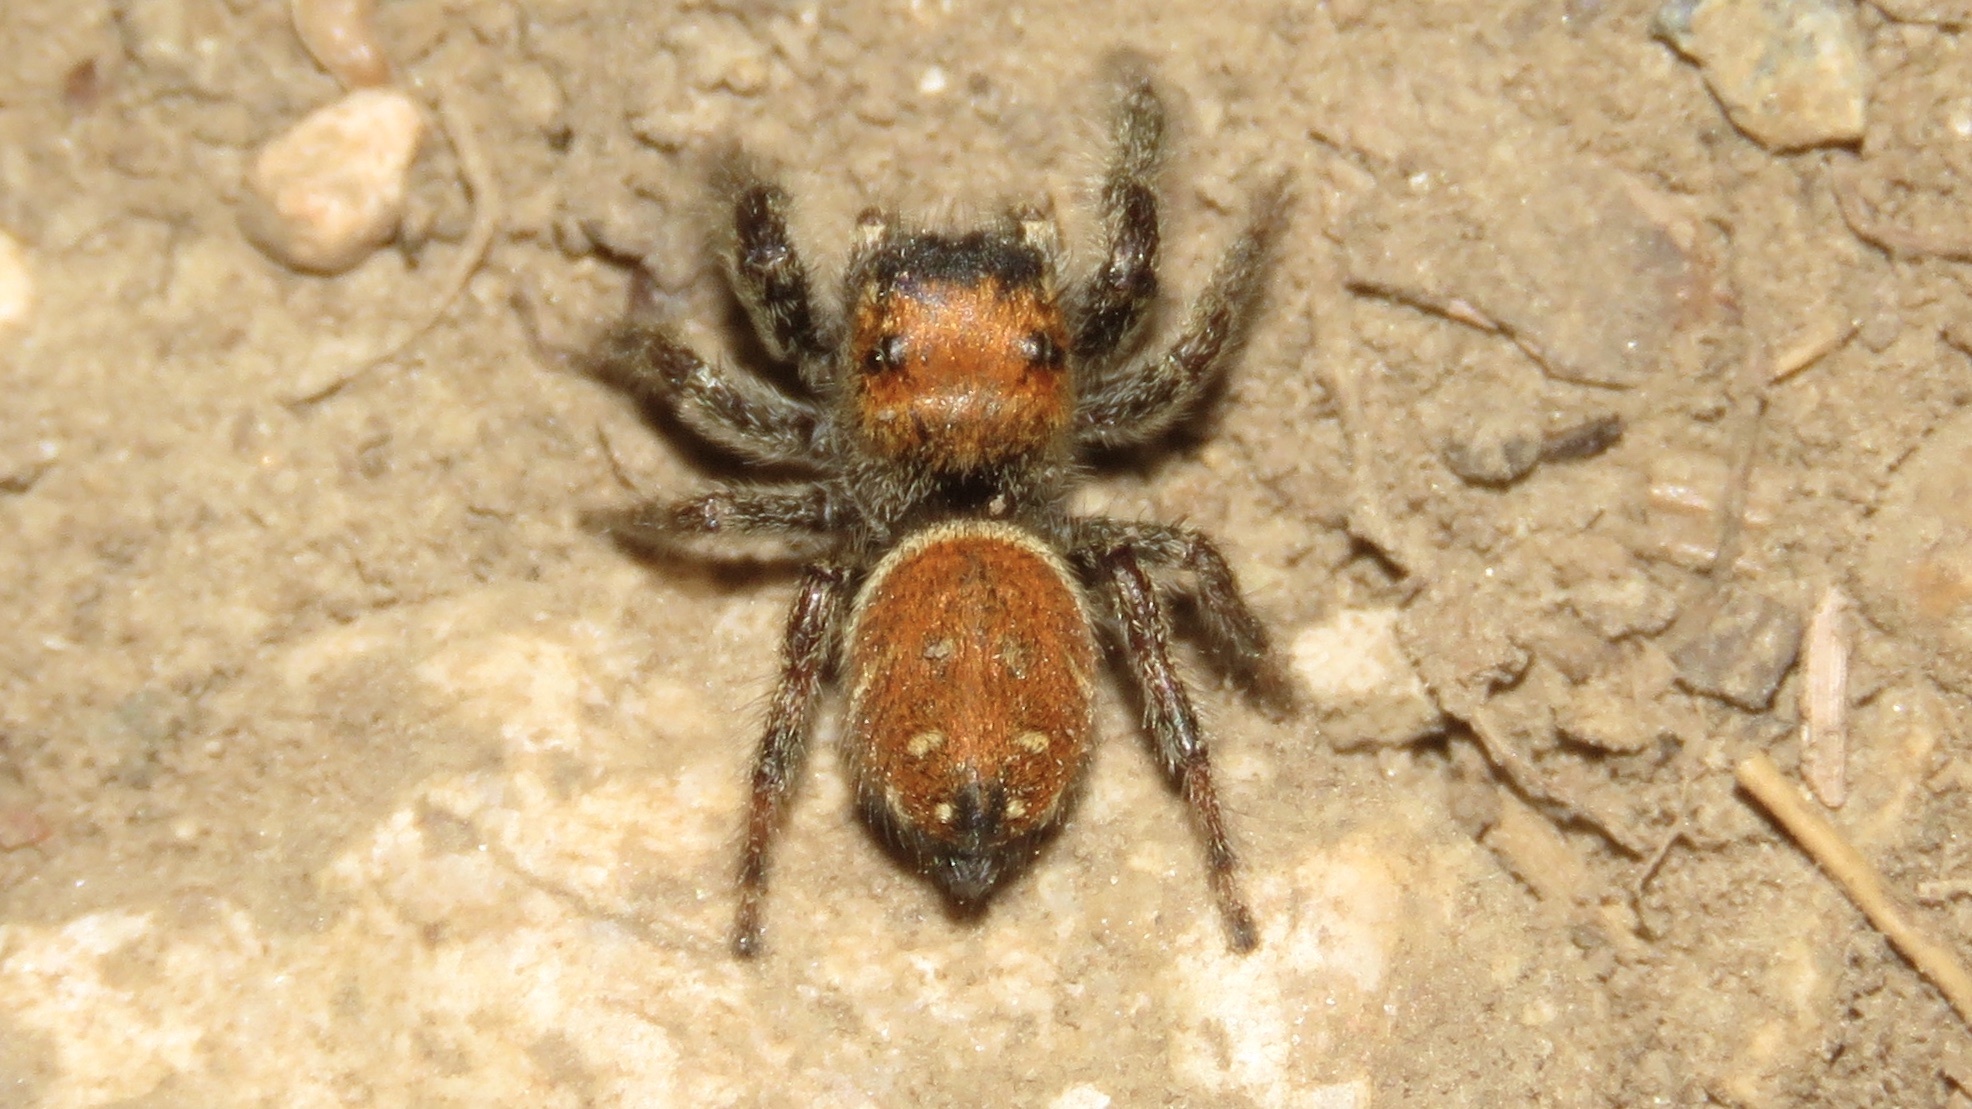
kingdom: Animalia
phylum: Arthropoda
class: Arachnida
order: Araneae
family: Salticidae
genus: Phidippus
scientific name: Phidippus whitmani
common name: Whitman's jumping spider
